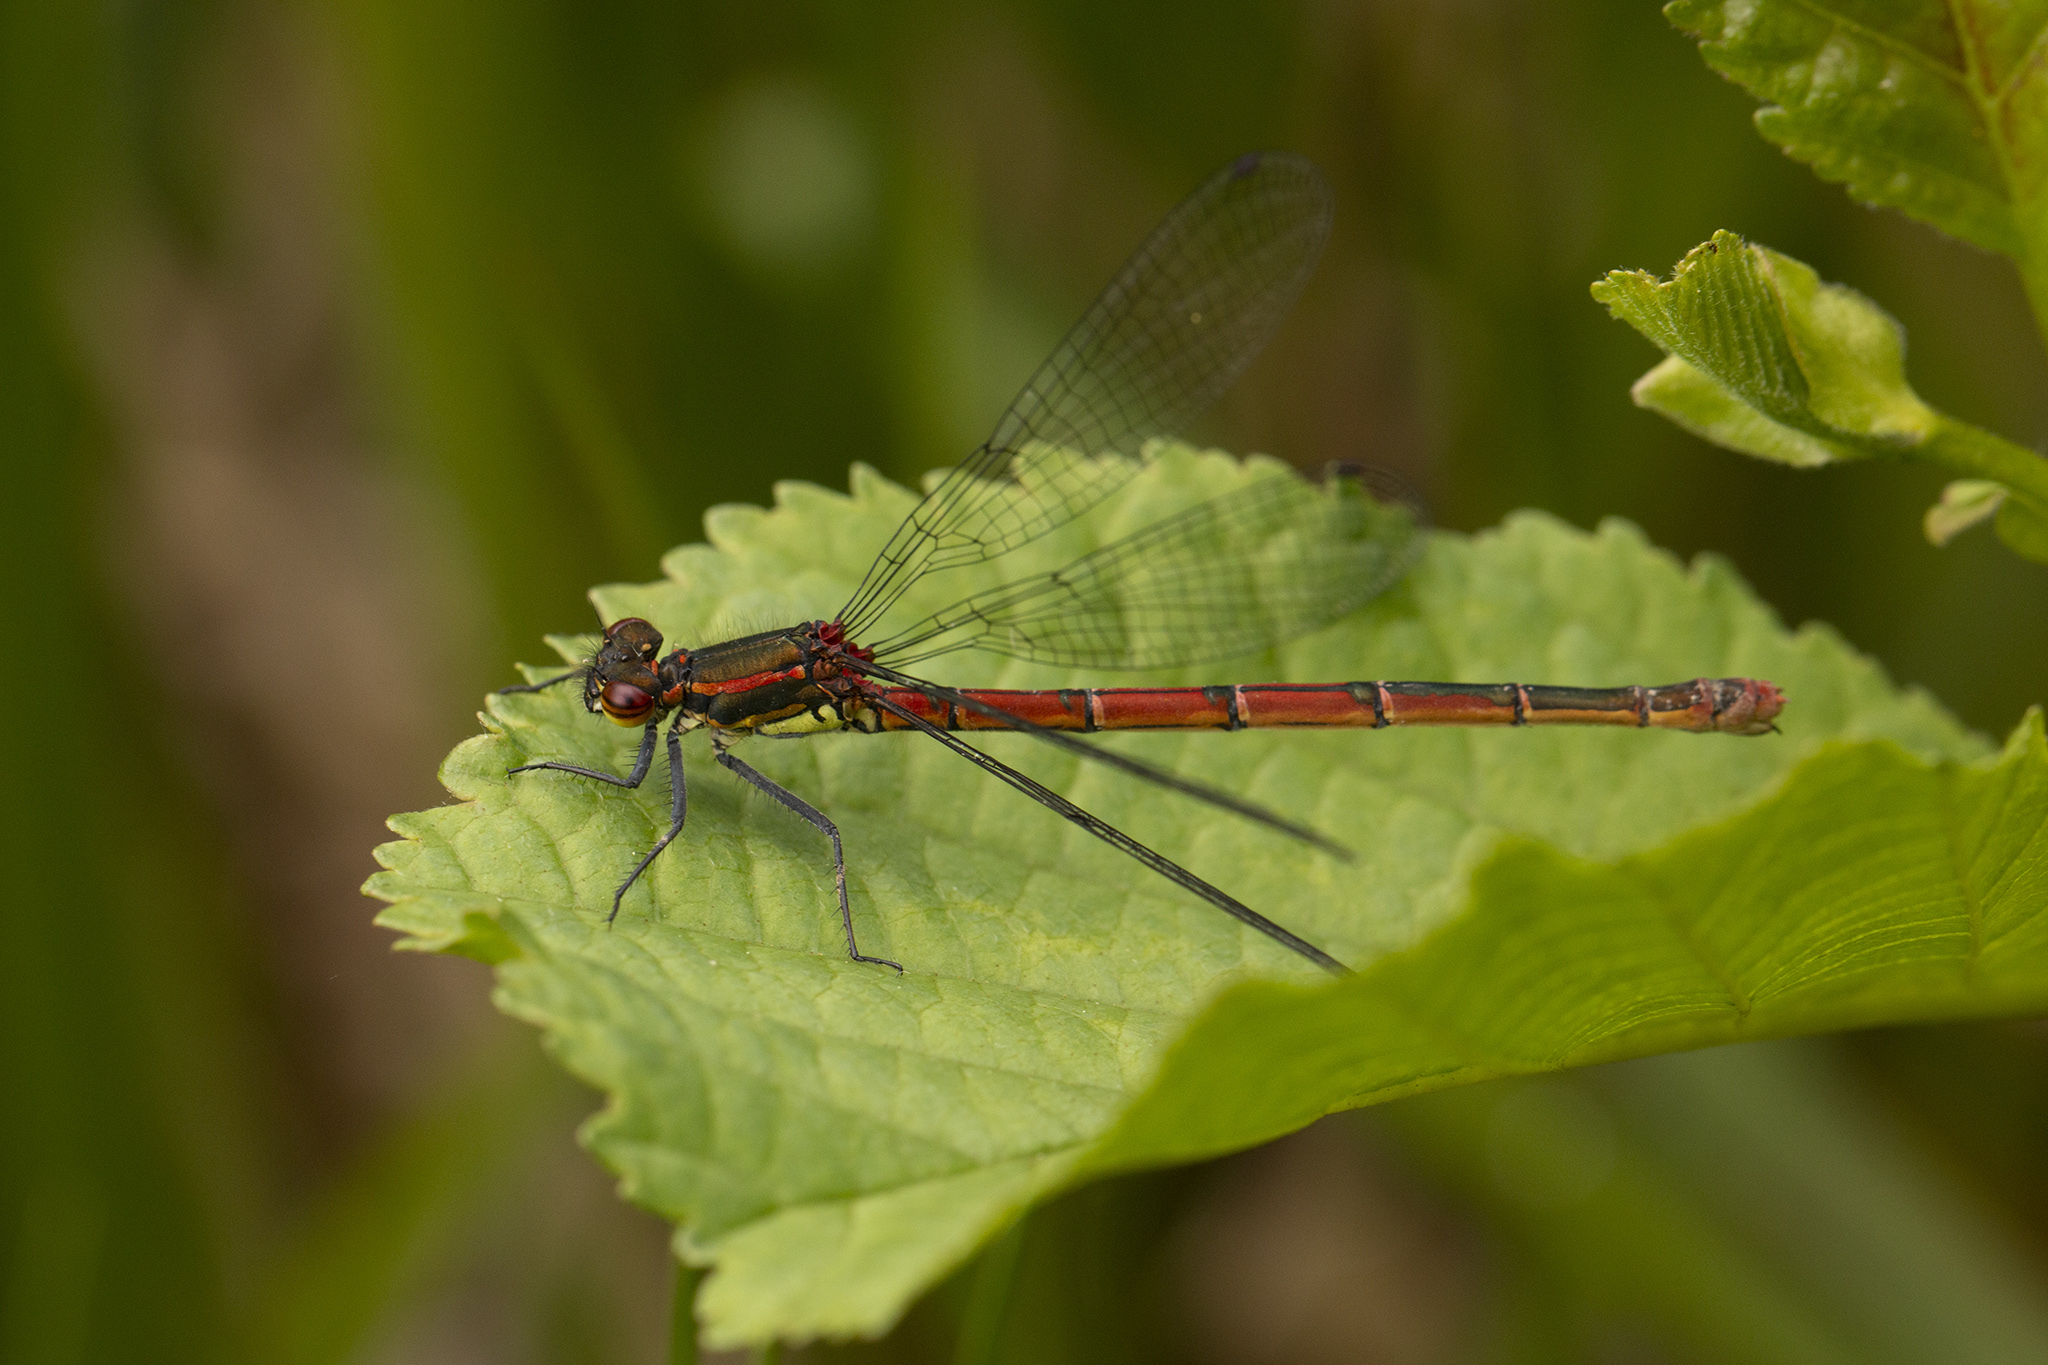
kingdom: Animalia
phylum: Arthropoda
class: Insecta
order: Odonata
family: Coenagrionidae
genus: Pyrrhosoma
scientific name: Pyrrhosoma nymphula
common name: Large red damsel
